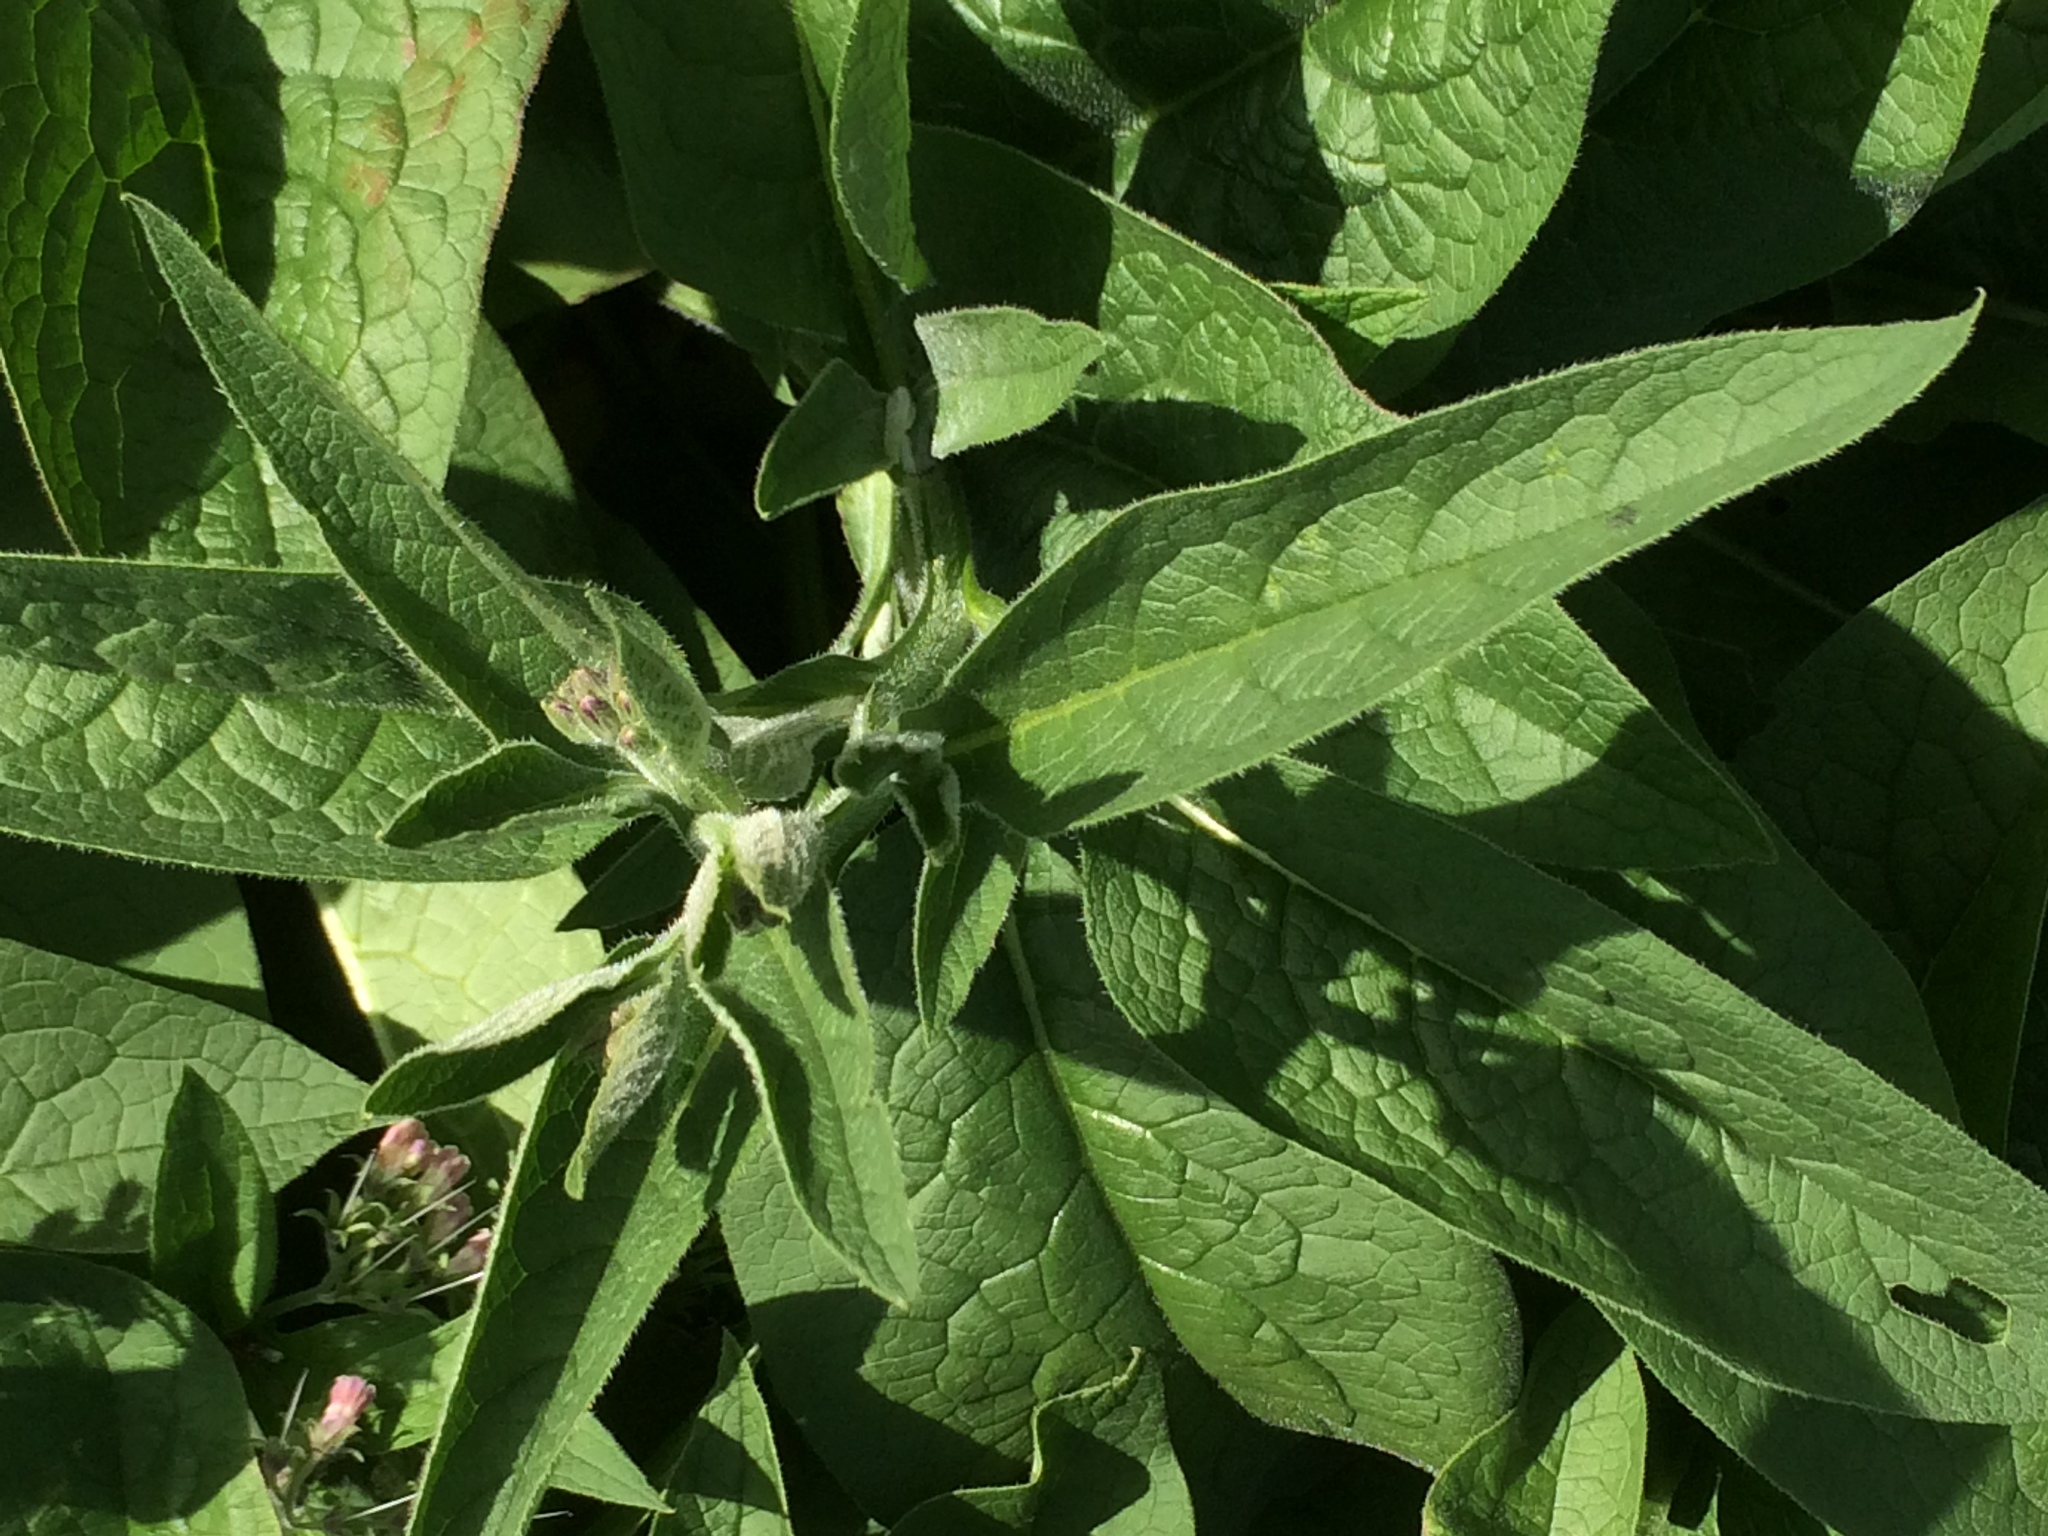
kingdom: Plantae
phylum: Tracheophyta
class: Magnoliopsida
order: Boraginales
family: Boraginaceae
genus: Symphytum
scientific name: Symphytum officinale
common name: Common comfrey
